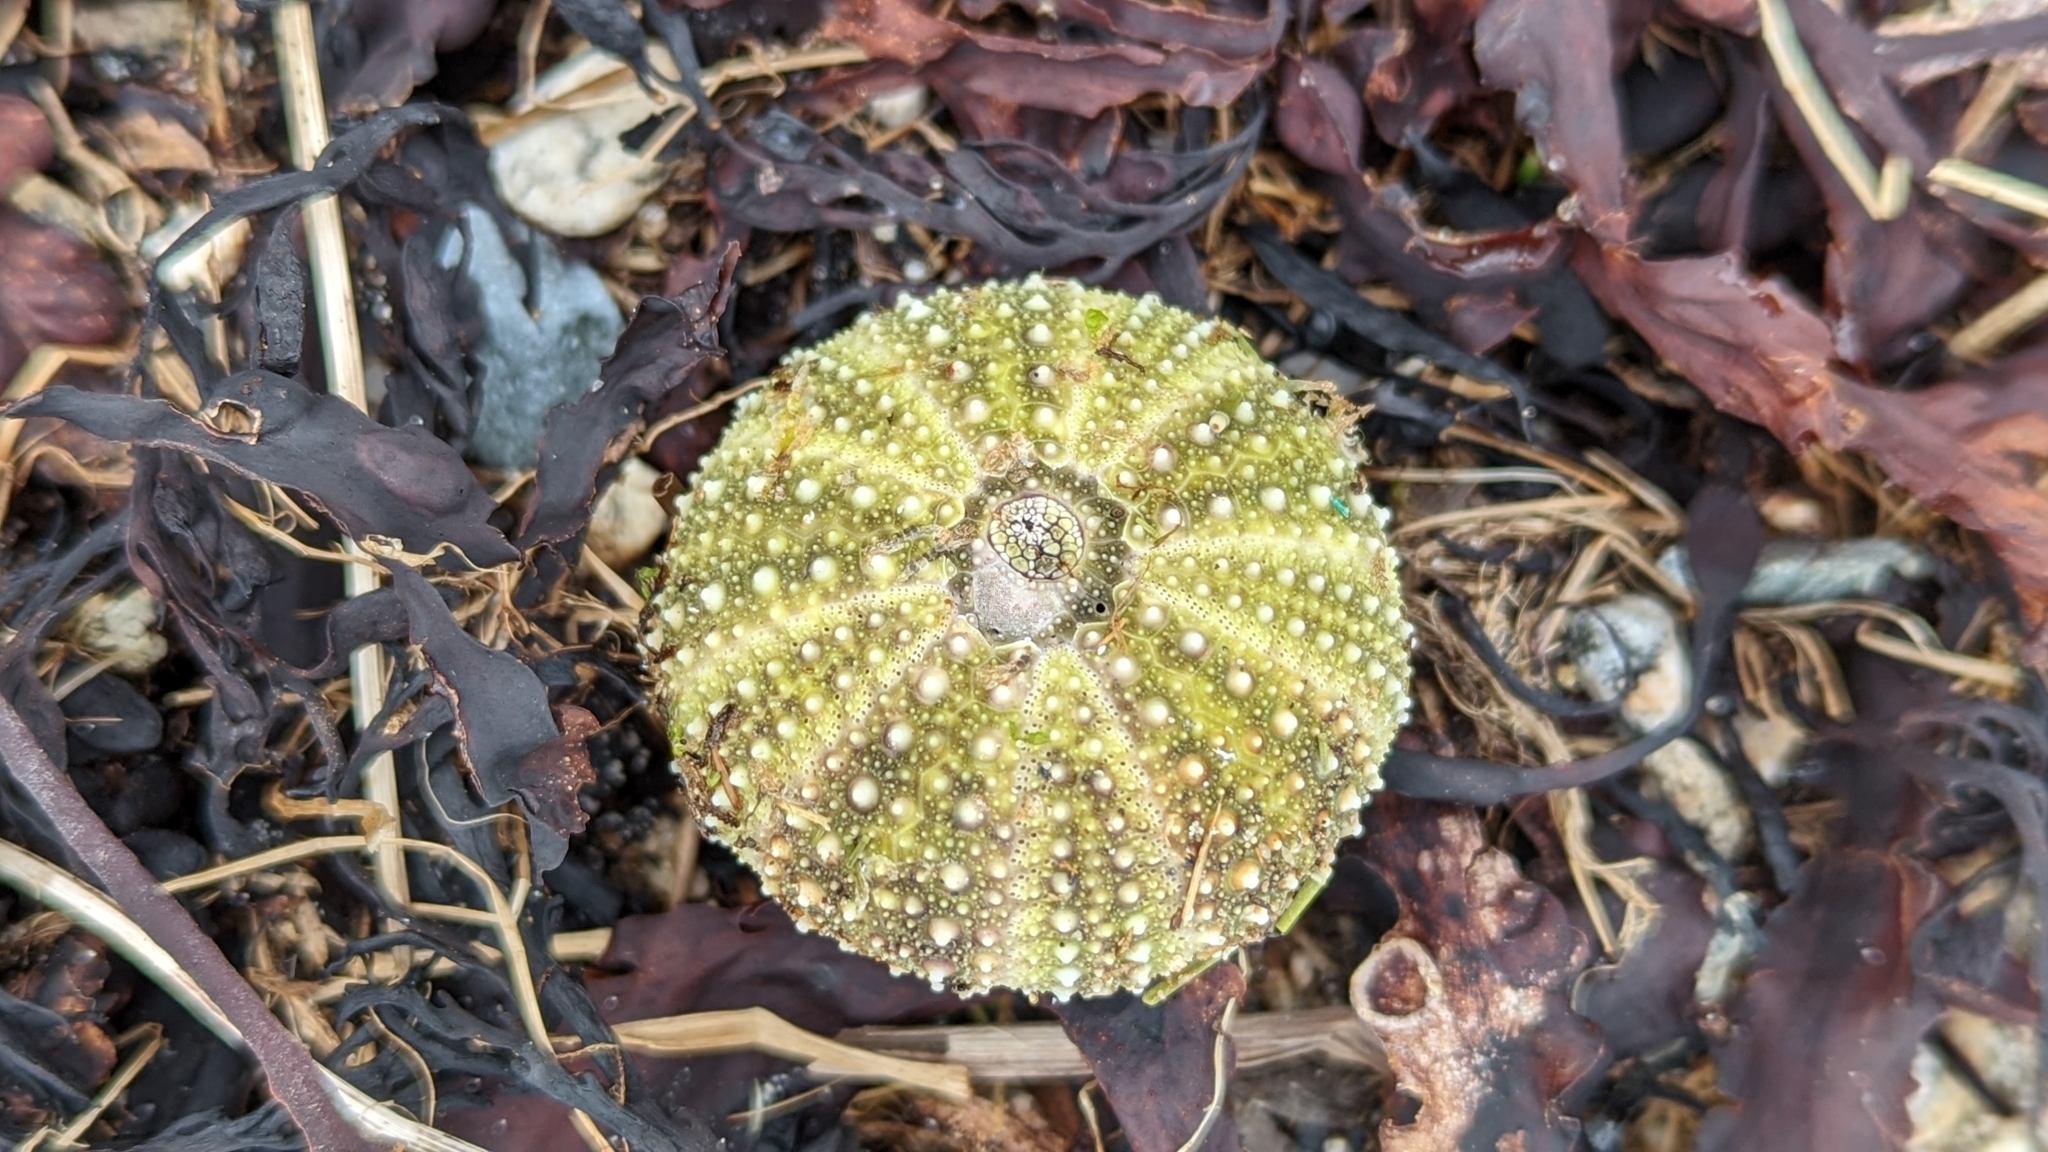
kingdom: Animalia
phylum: Echinodermata
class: Echinoidea
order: Camarodonta
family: Strongylocentrotidae
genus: Strongylocentrotus
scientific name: Strongylocentrotus droebachiensis
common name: Northern sea urchin
